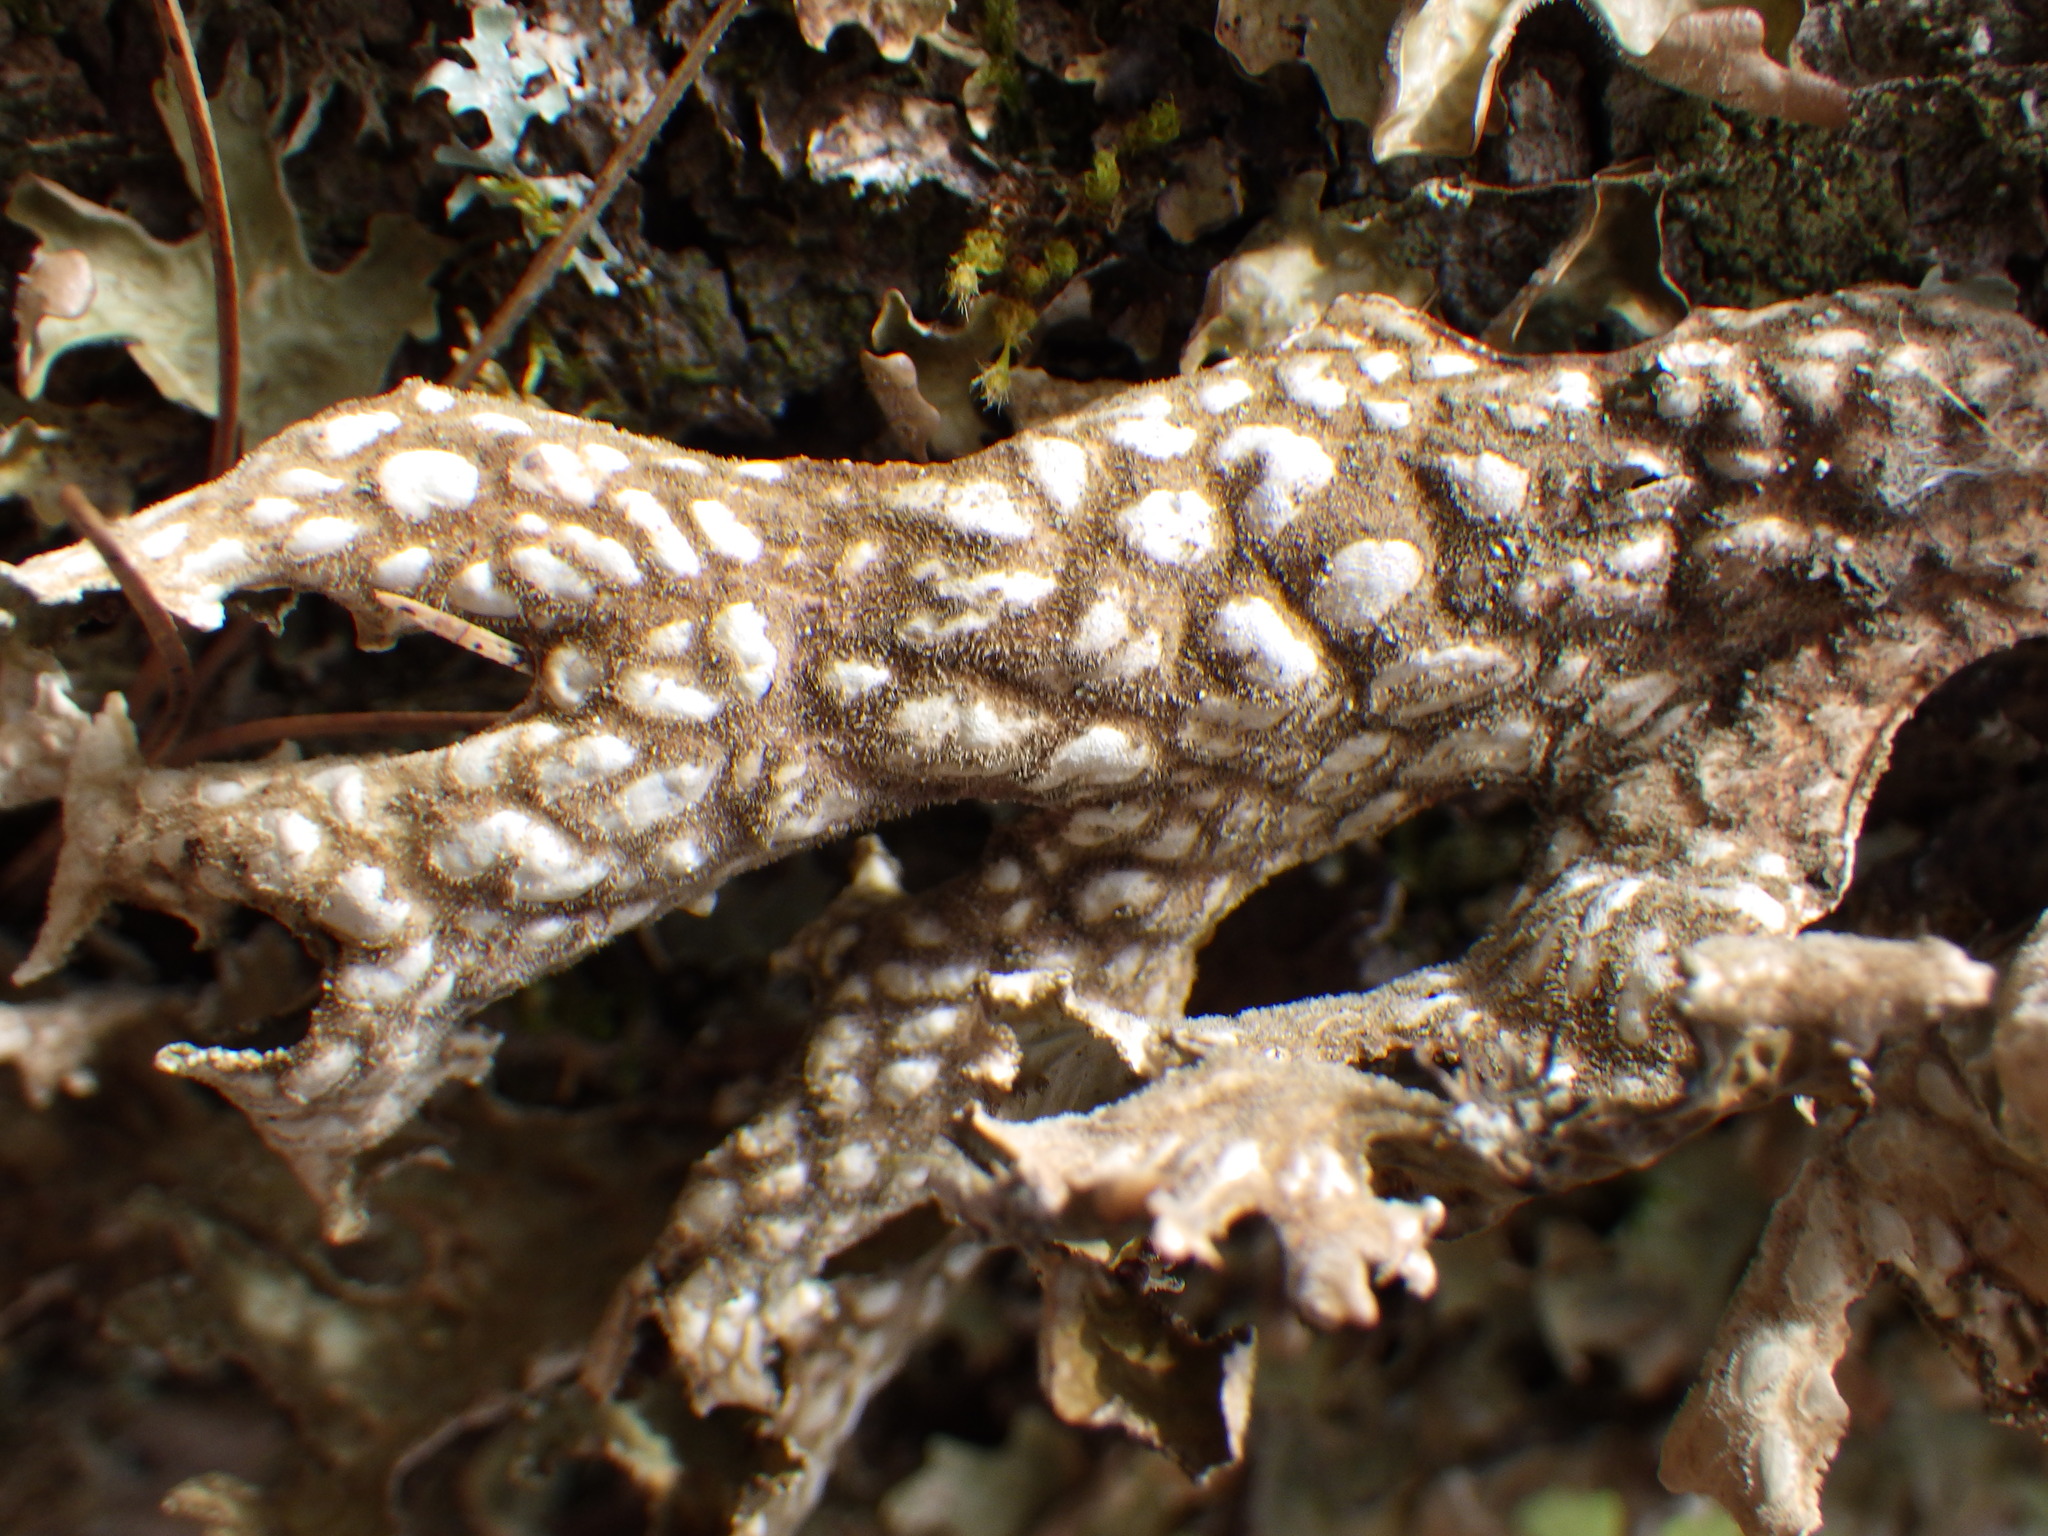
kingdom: Fungi
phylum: Ascomycota
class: Lecanoromycetes
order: Peltigerales
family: Lobariaceae
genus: Lobaria
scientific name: Lobaria pulmonaria
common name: Lungwort
